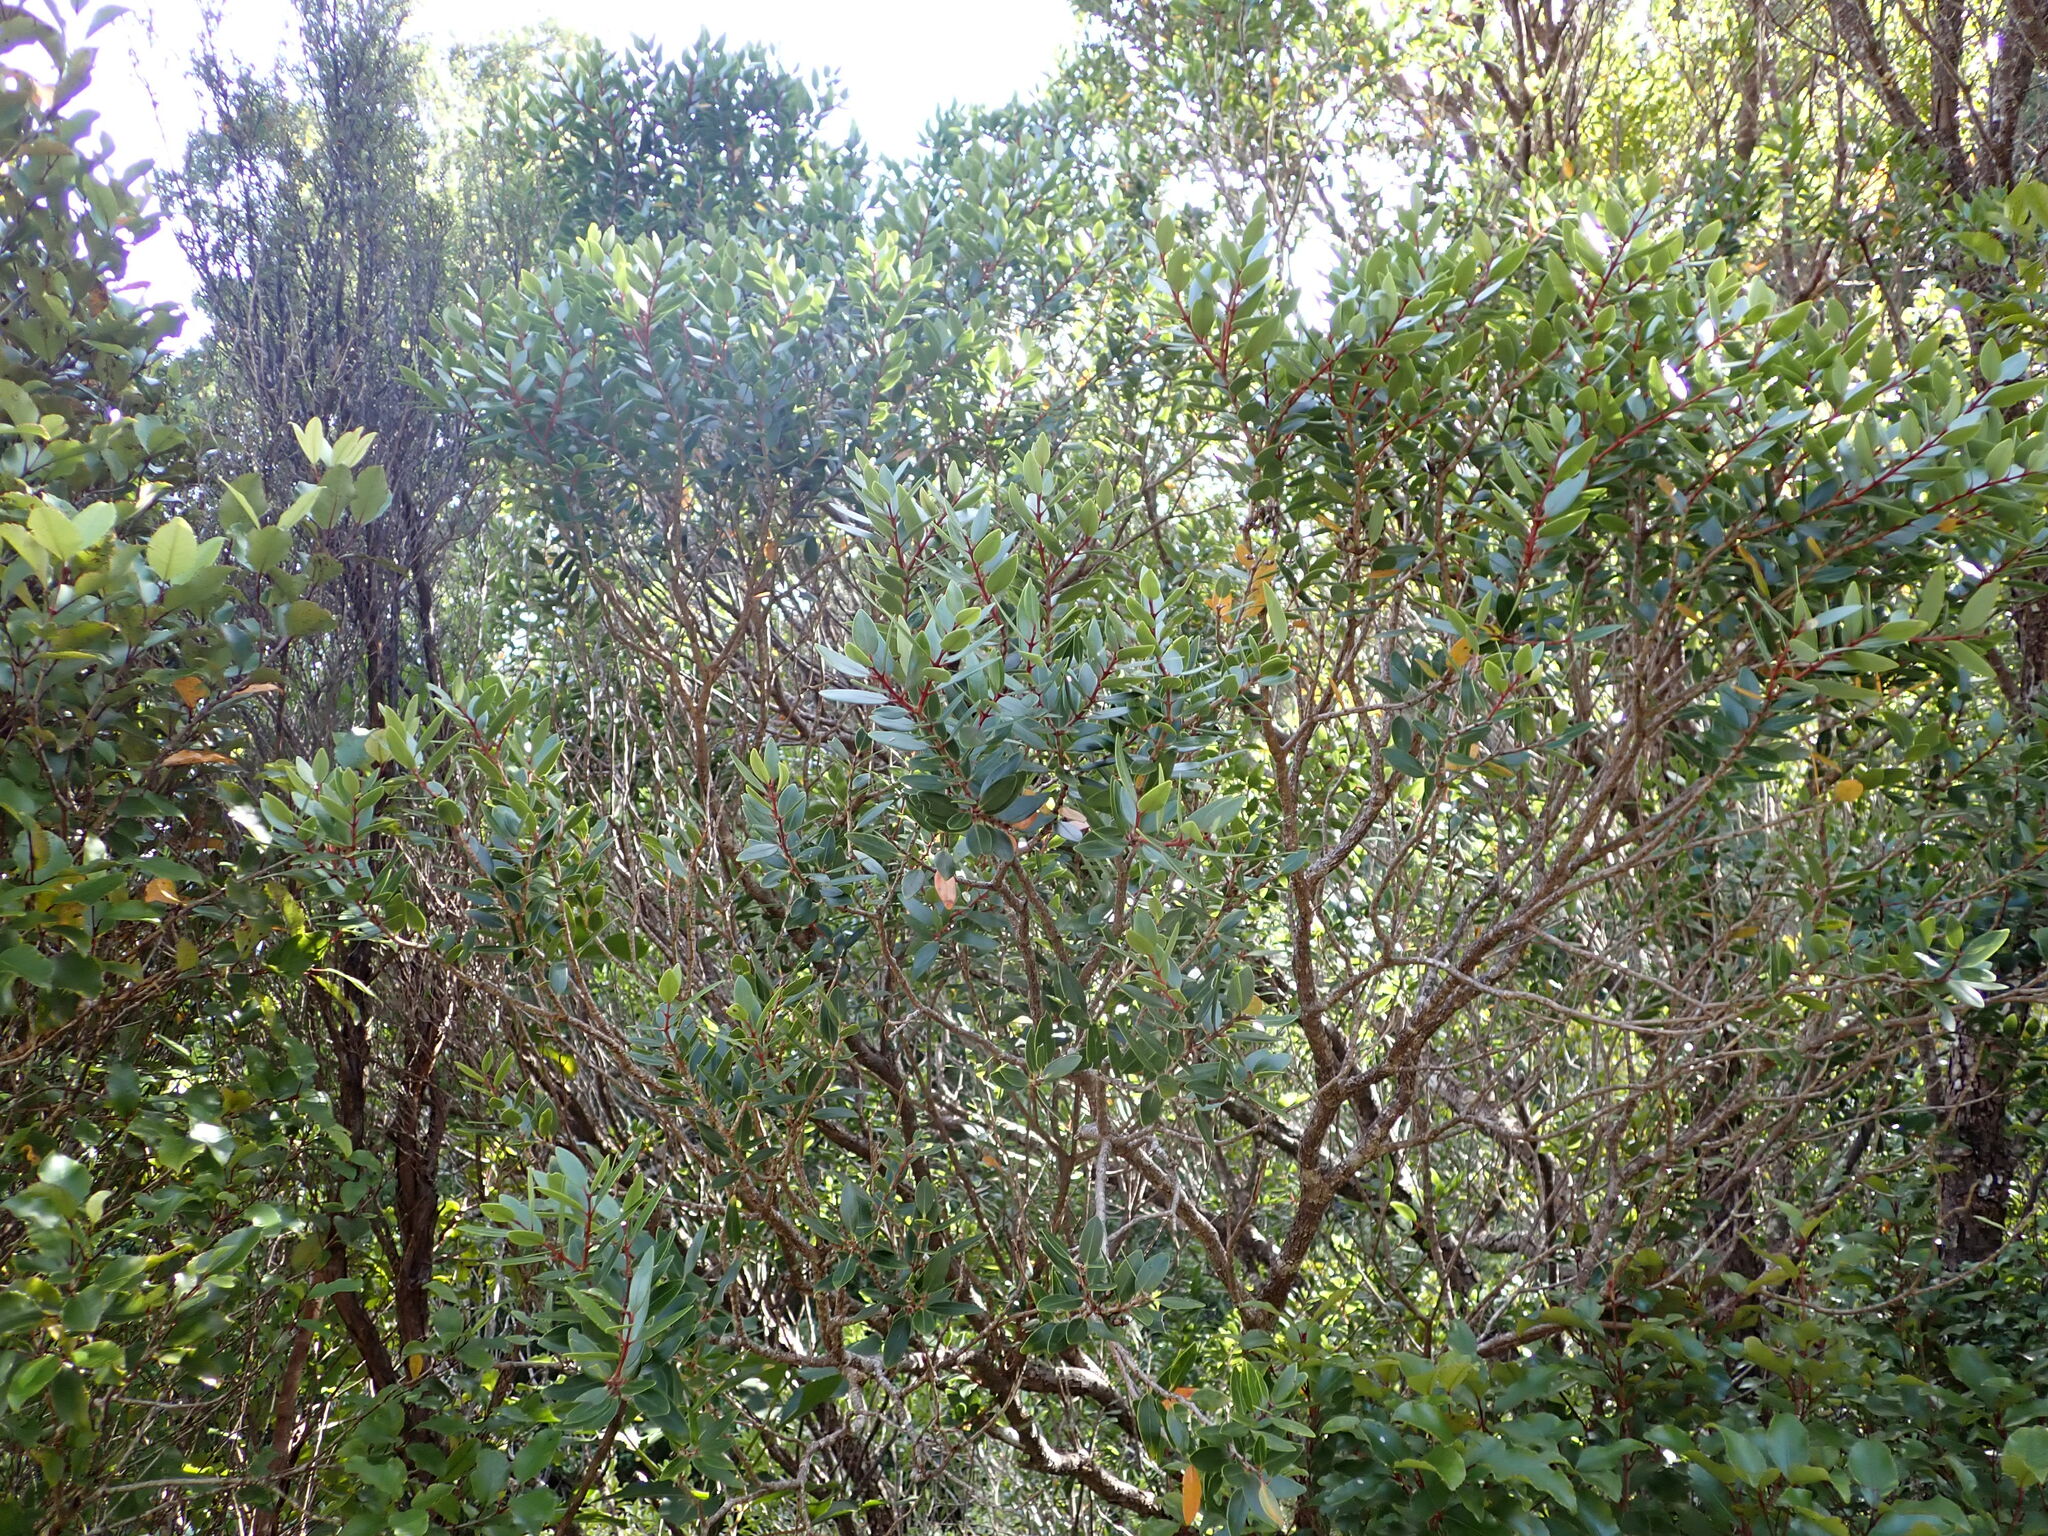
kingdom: Plantae
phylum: Tracheophyta
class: Magnoliopsida
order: Myrtales
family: Myrtaceae
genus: Metrosideros
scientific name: Metrosideros robusta
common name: Northern rata
